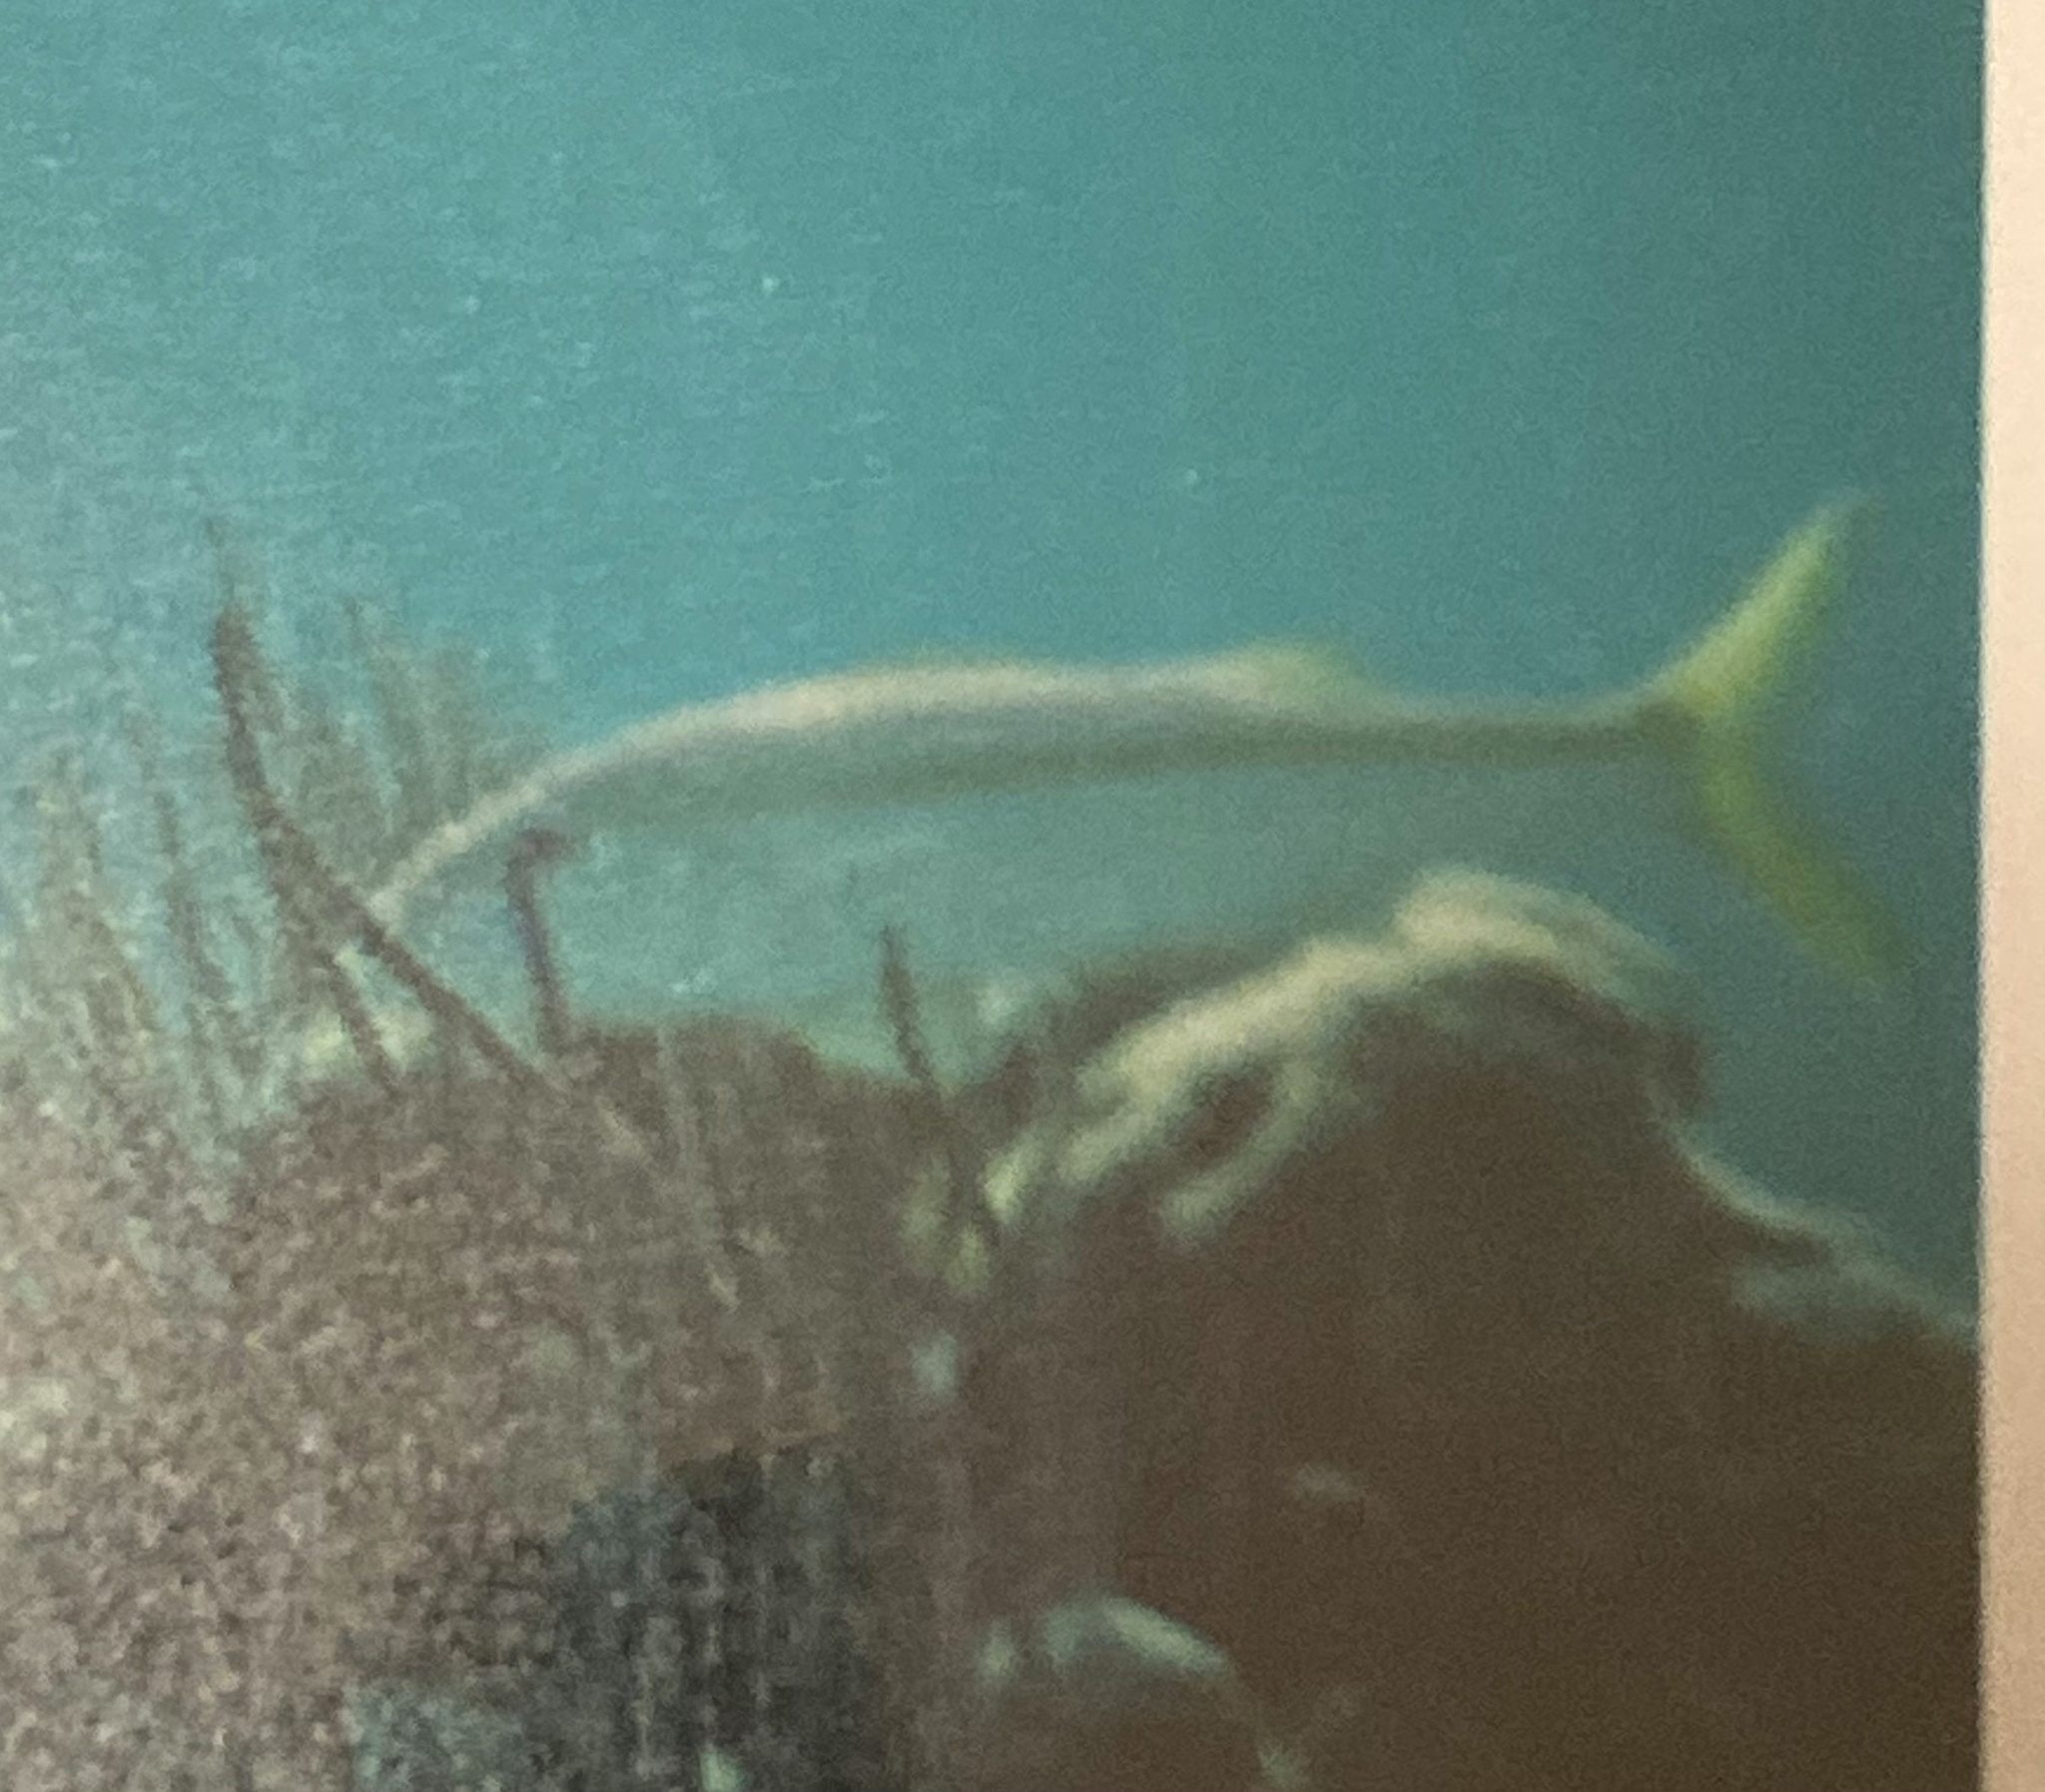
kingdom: Animalia
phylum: Chordata
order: Perciformes
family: Mullidae
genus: Mulloidichthys
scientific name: Mulloidichthys martinicus
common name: Yellow goatfish
